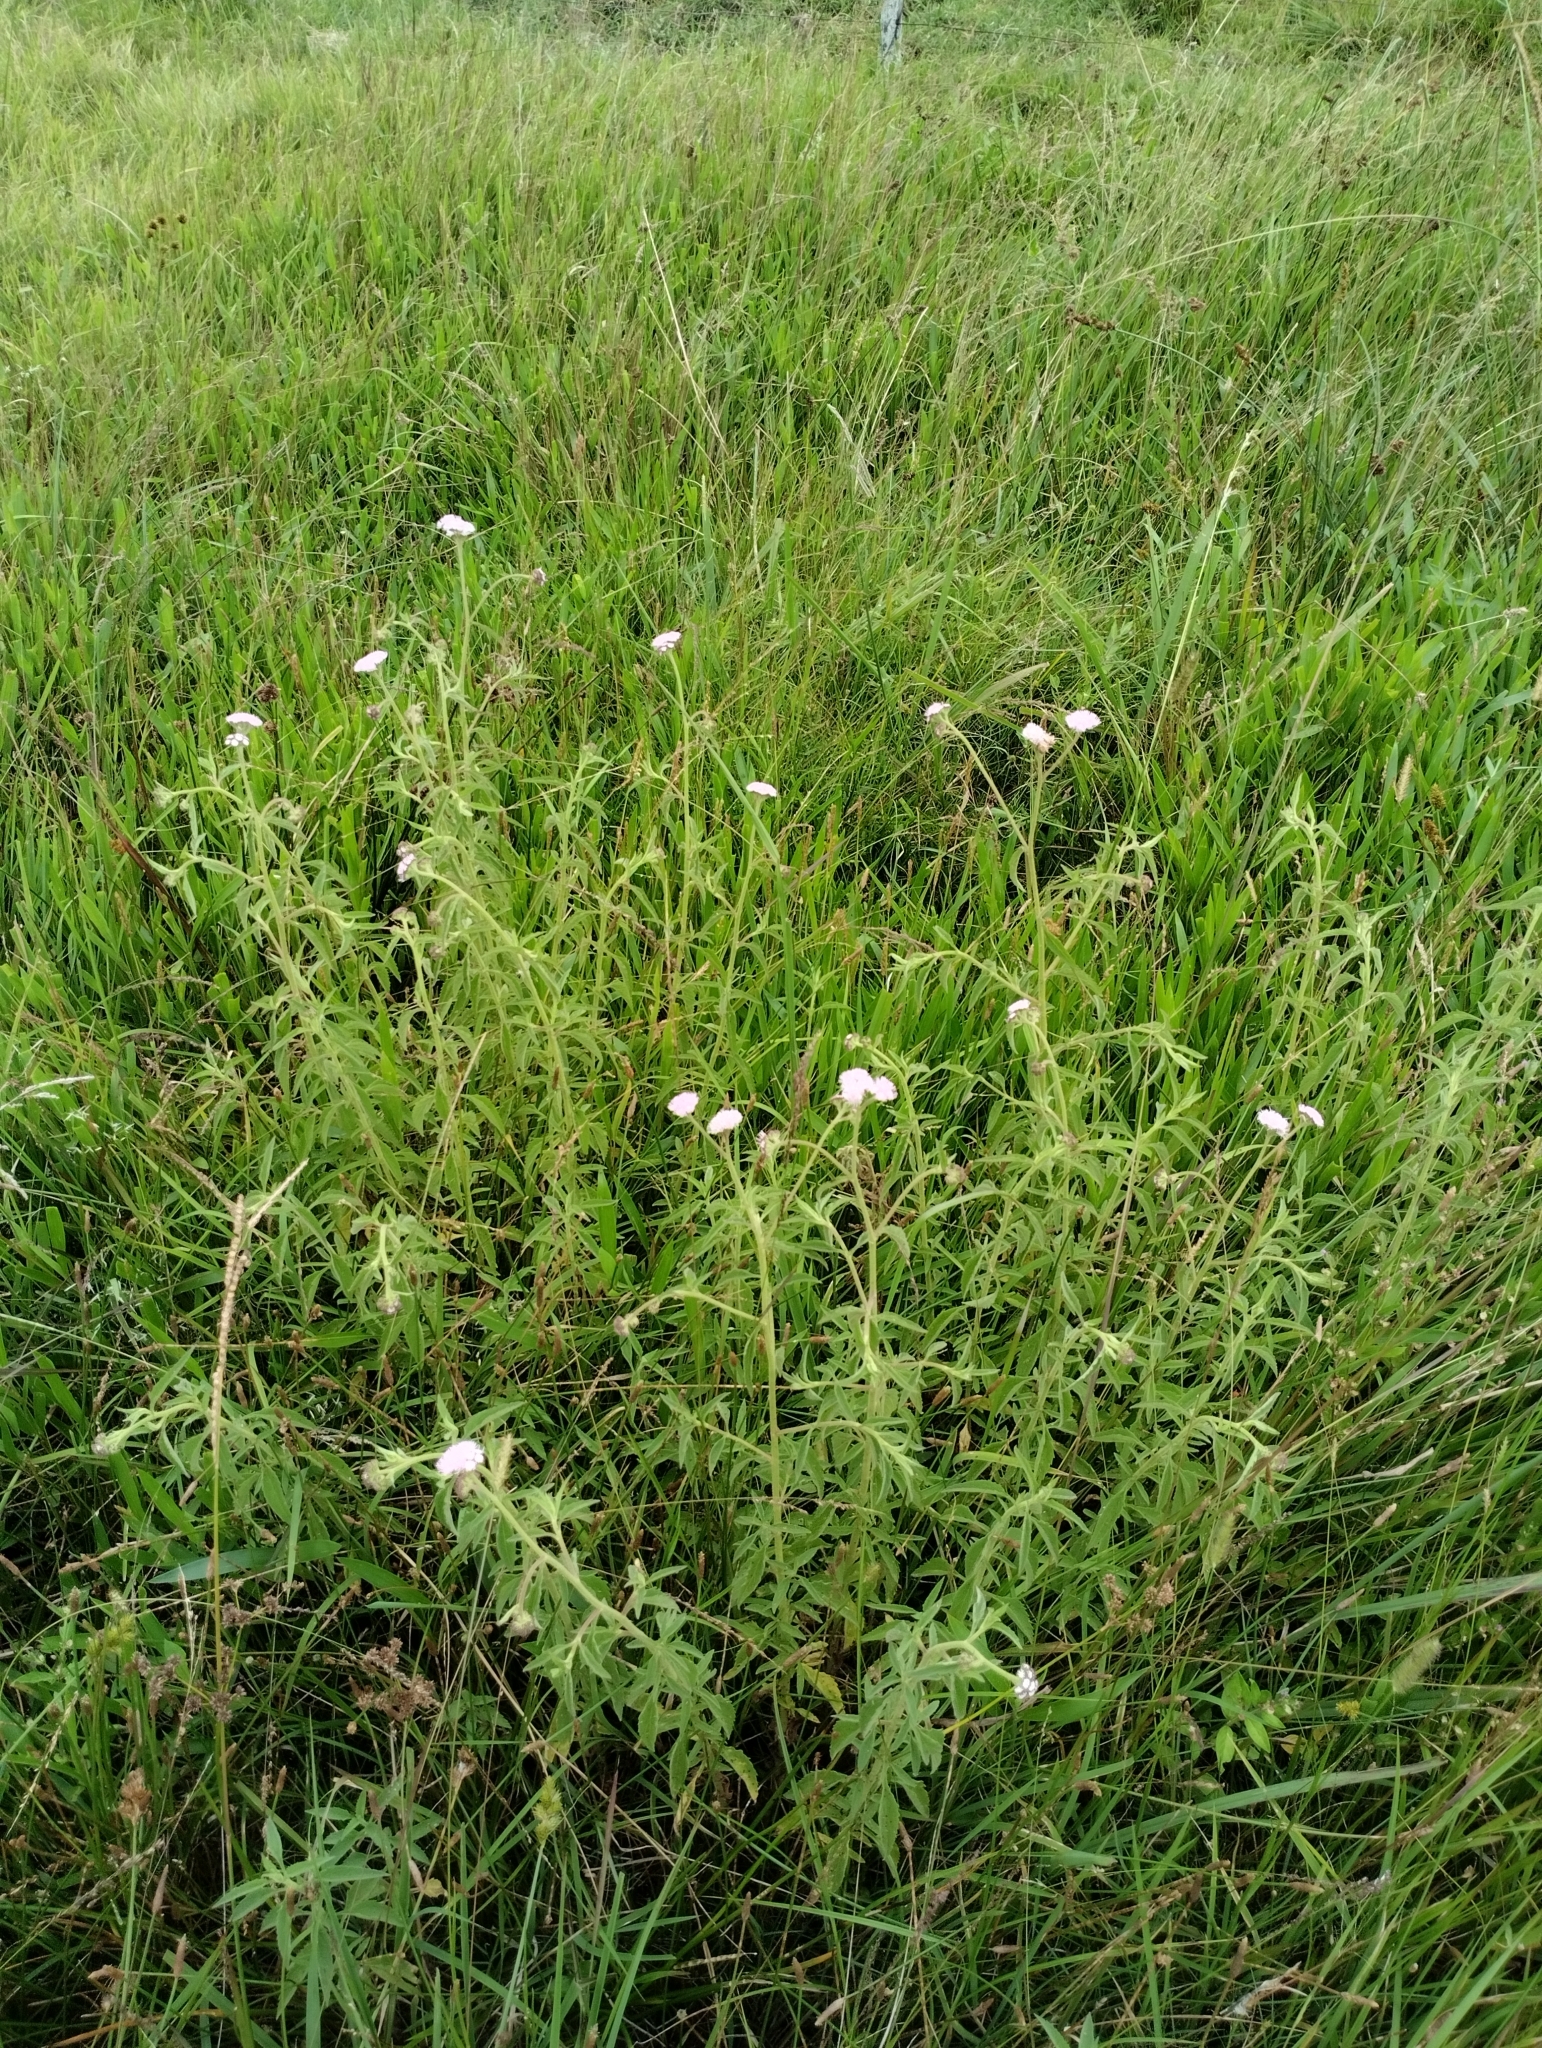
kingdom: Plantae
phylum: Tracheophyta
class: Magnoliopsida
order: Asterales
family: Asteraceae
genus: Barrosoa
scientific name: Barrosoa candolleana
